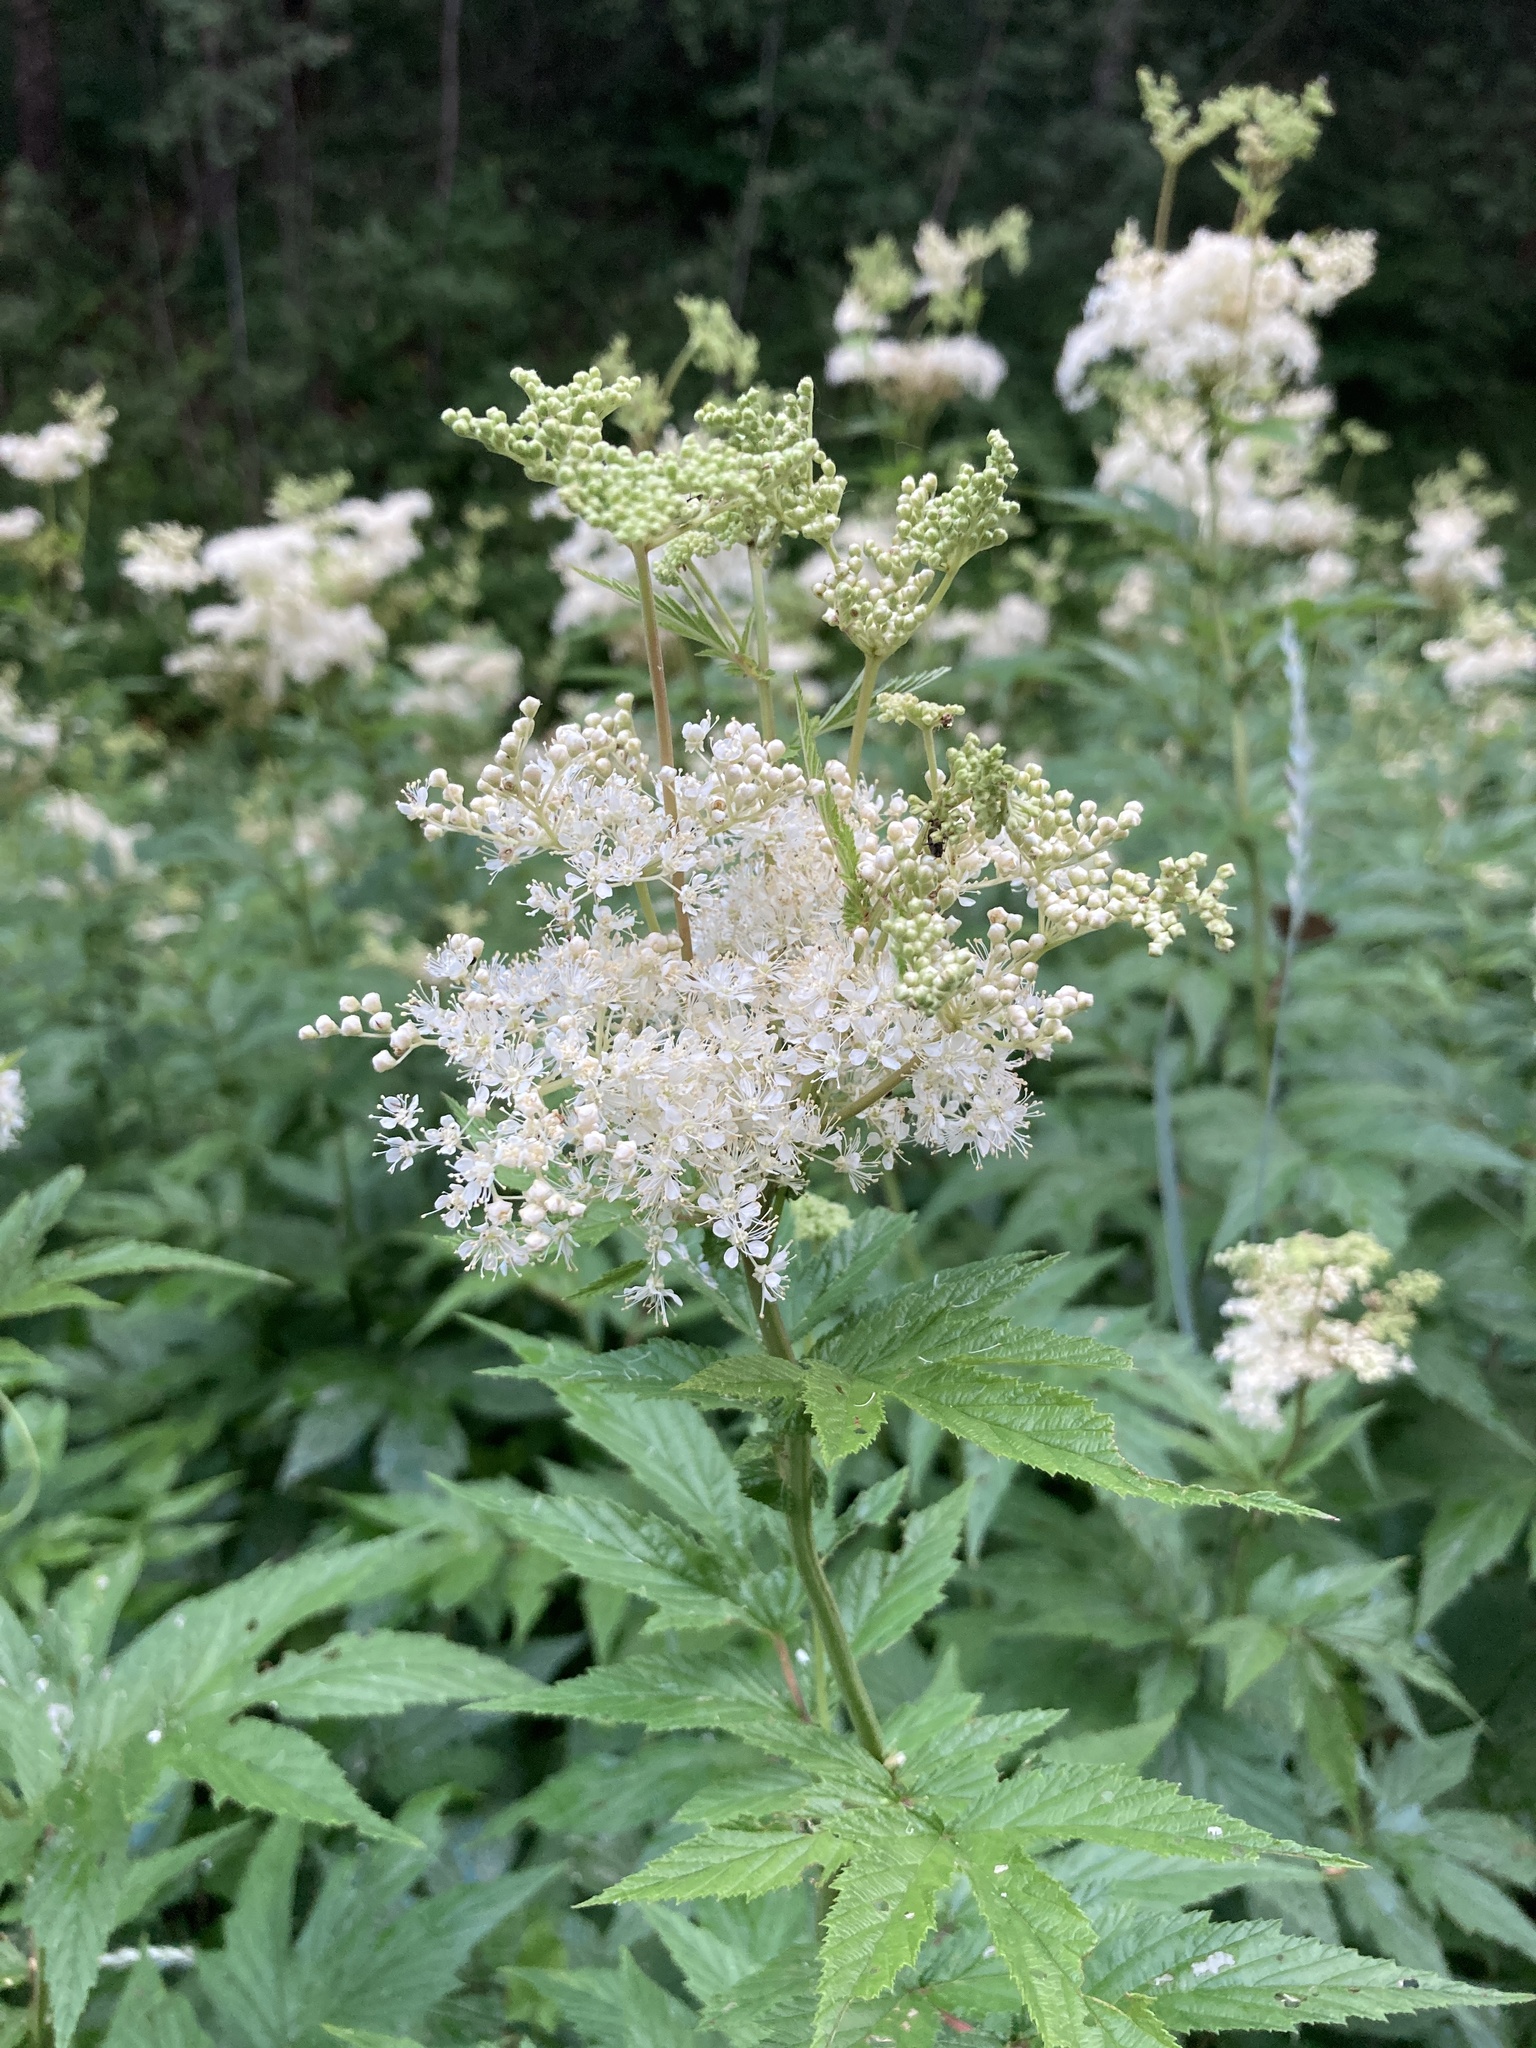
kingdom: Plantae
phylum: Tracheophyta
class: Magnoliopsida
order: Rosales
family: Rosaceae
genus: Filipendula
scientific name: Filipendula ulmaria
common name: Meadowsweet
